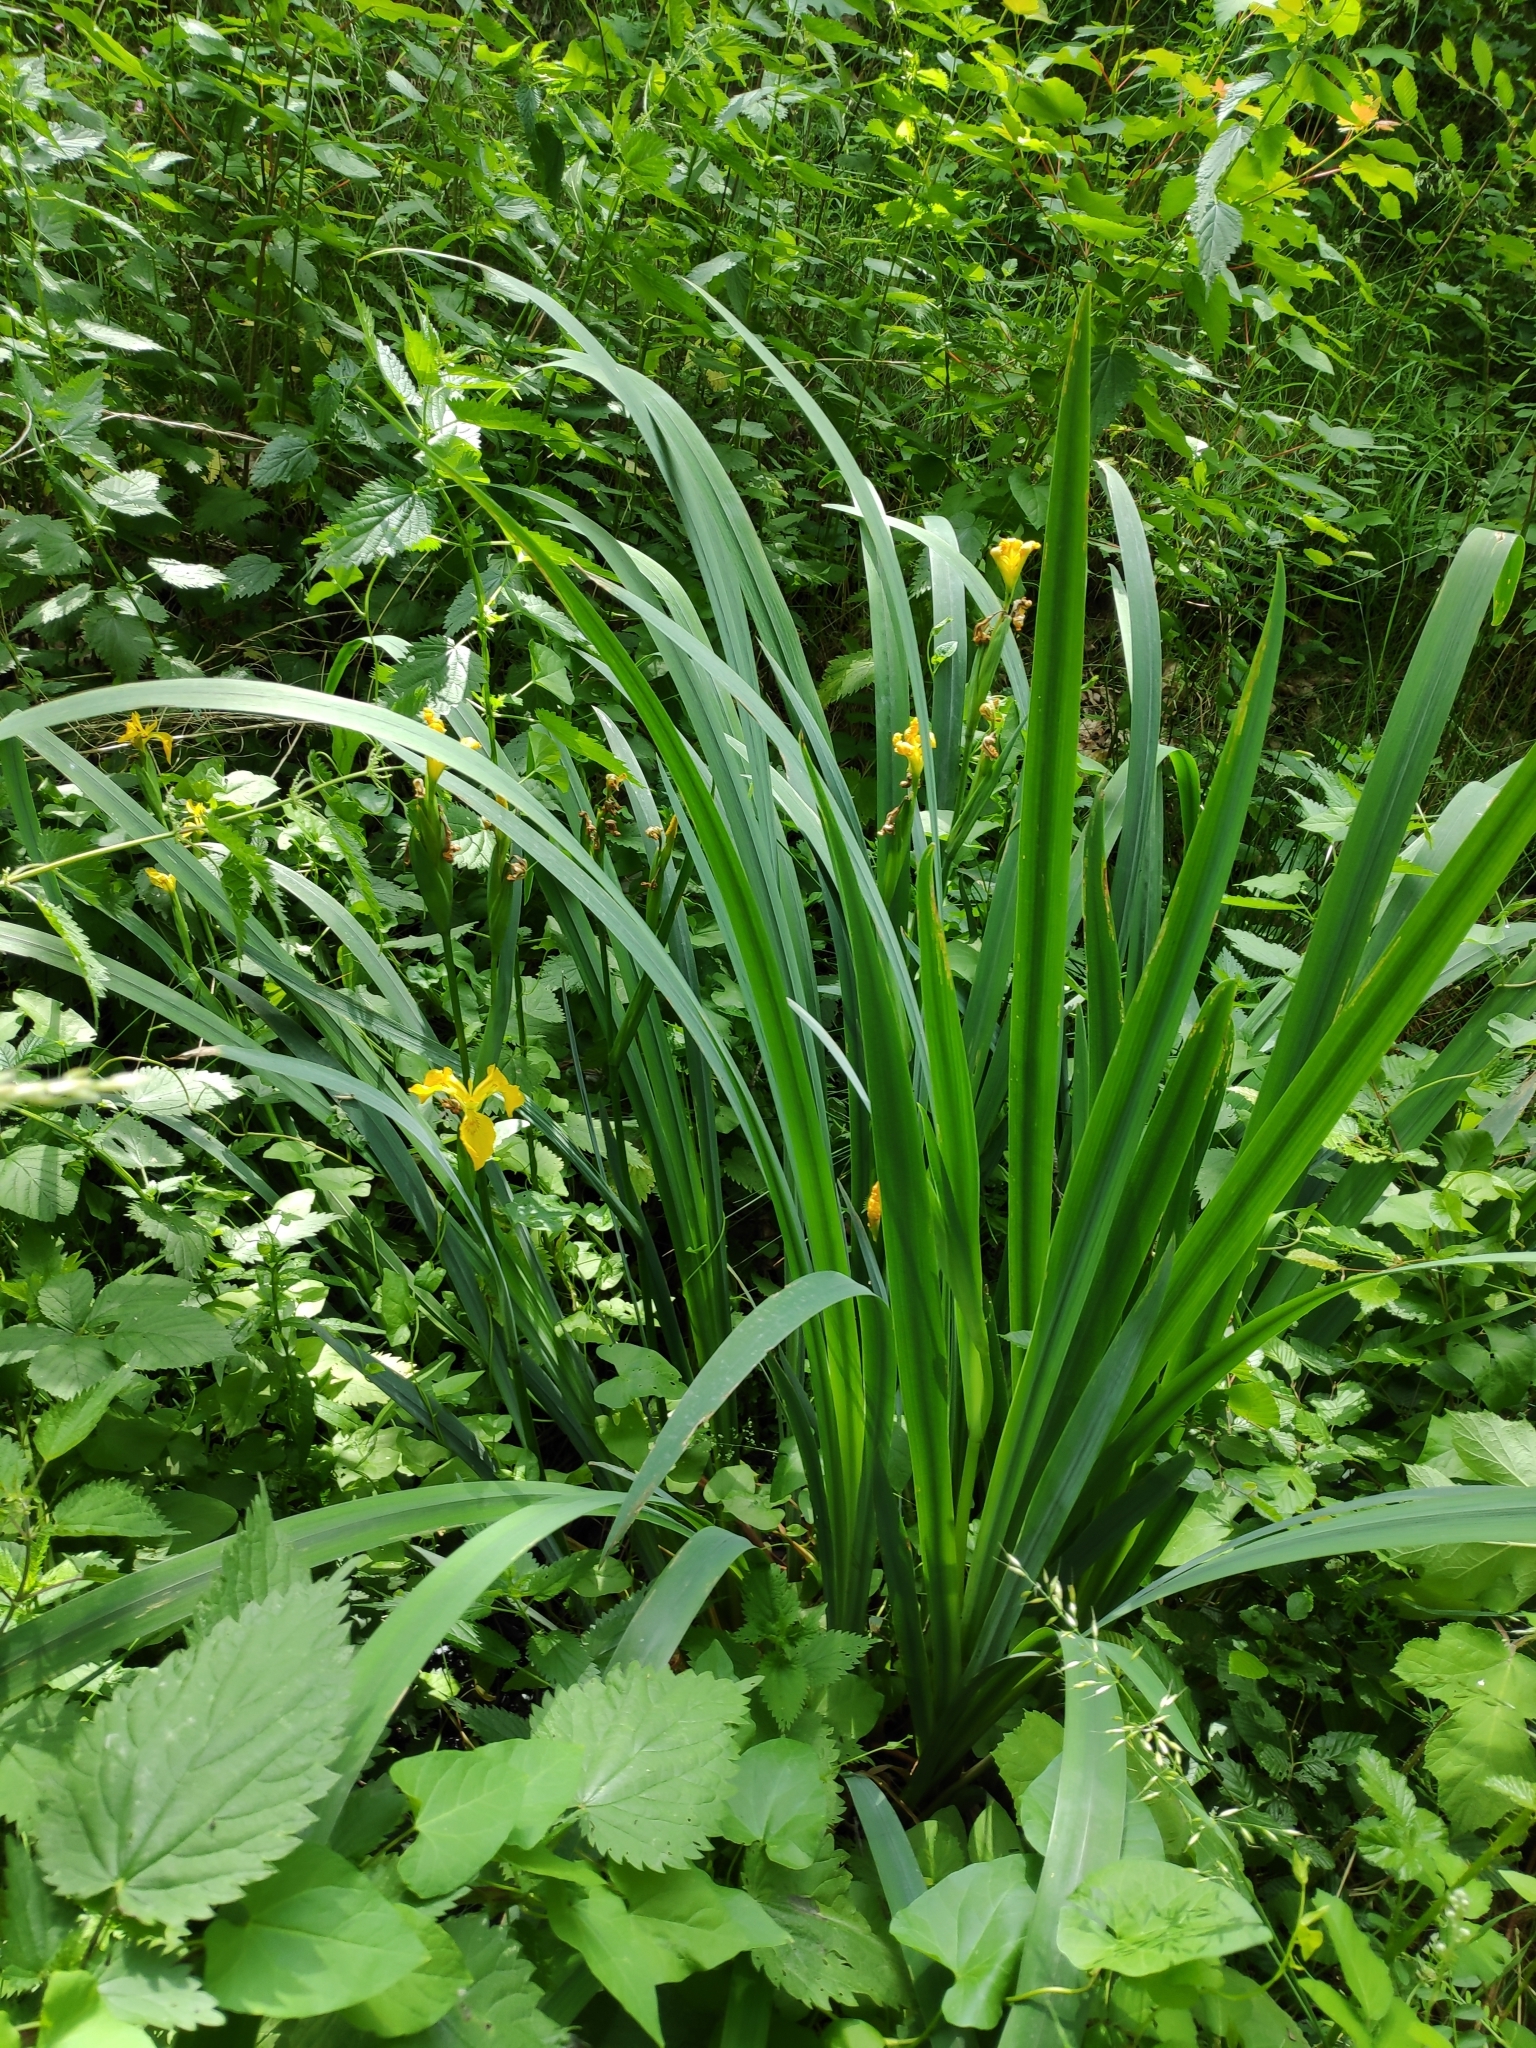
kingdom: Plantae
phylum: Tracheophyta
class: Liliopsida
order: Asparagales
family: Iridaceae
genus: Iris
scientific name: Iris pseudacorus
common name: Yellow flag
